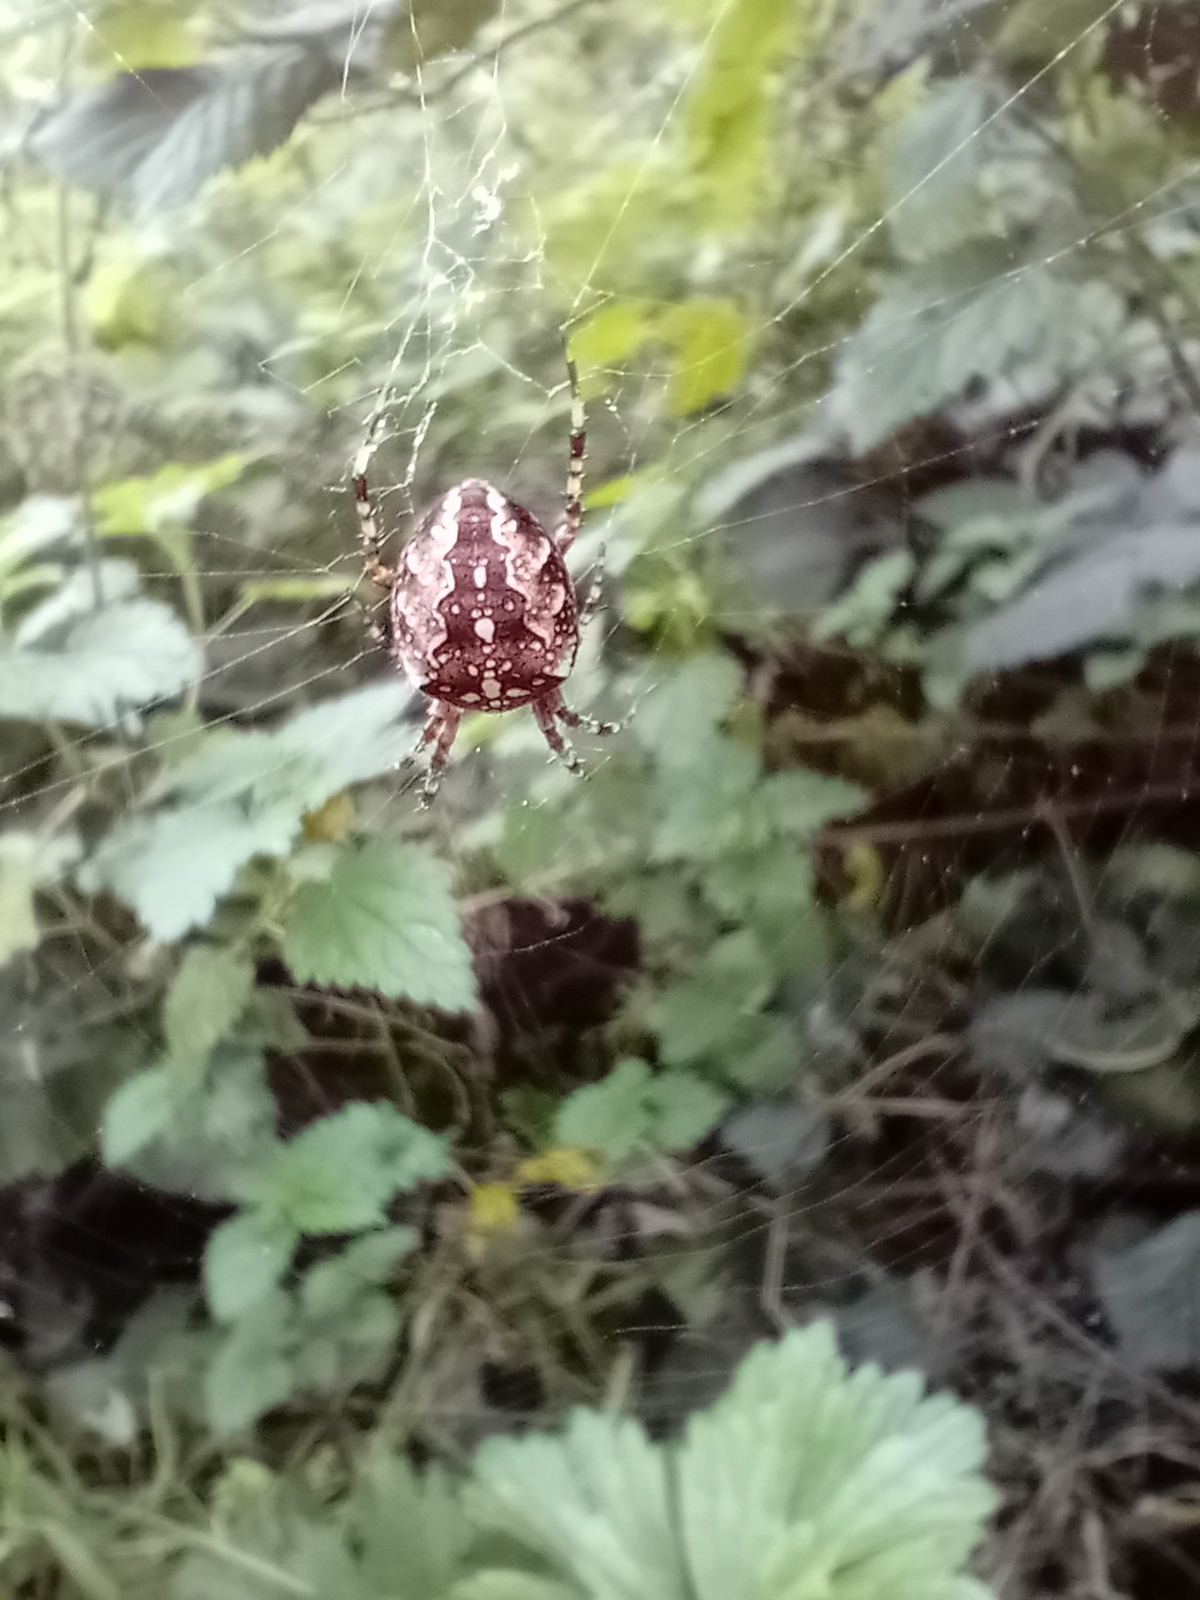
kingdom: Animalia
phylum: Arthropoda
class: Arachnida
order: Araneae
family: Araneidae
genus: Araneus
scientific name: Araneus diadematus
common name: Cross orbweaver
